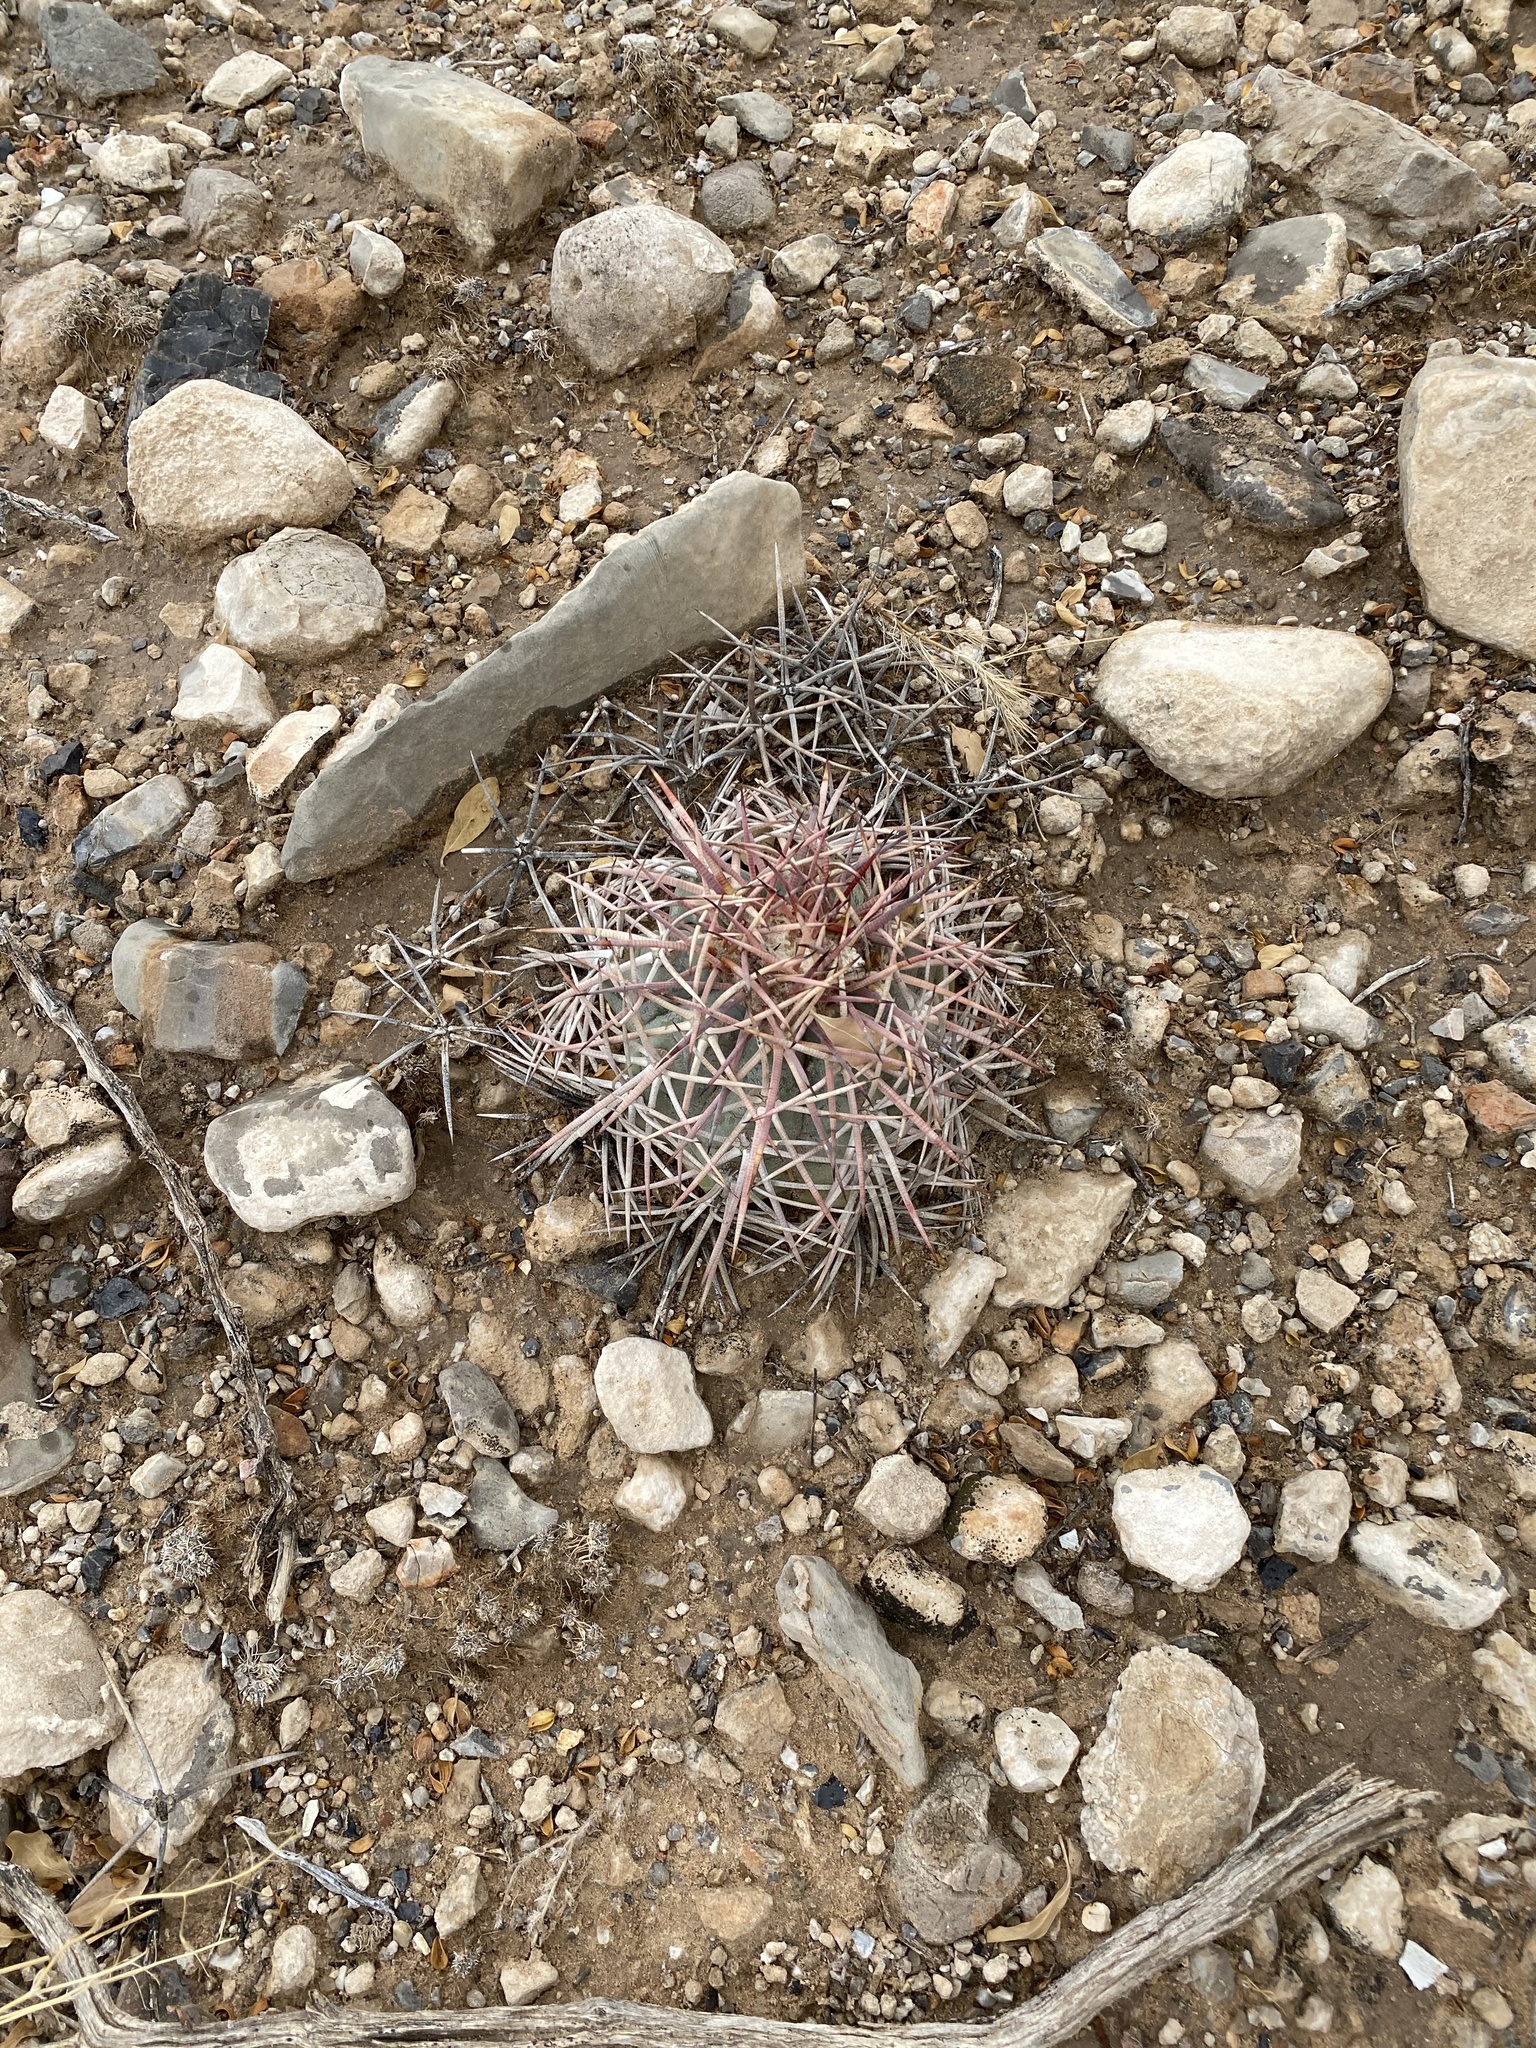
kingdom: Plantae
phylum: Tracheophyta
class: Magnoliopsida
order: Caryophyllales
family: Cactaceae
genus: Echinocactus
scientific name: Echinocactus horizonthalonius
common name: Devilshead
